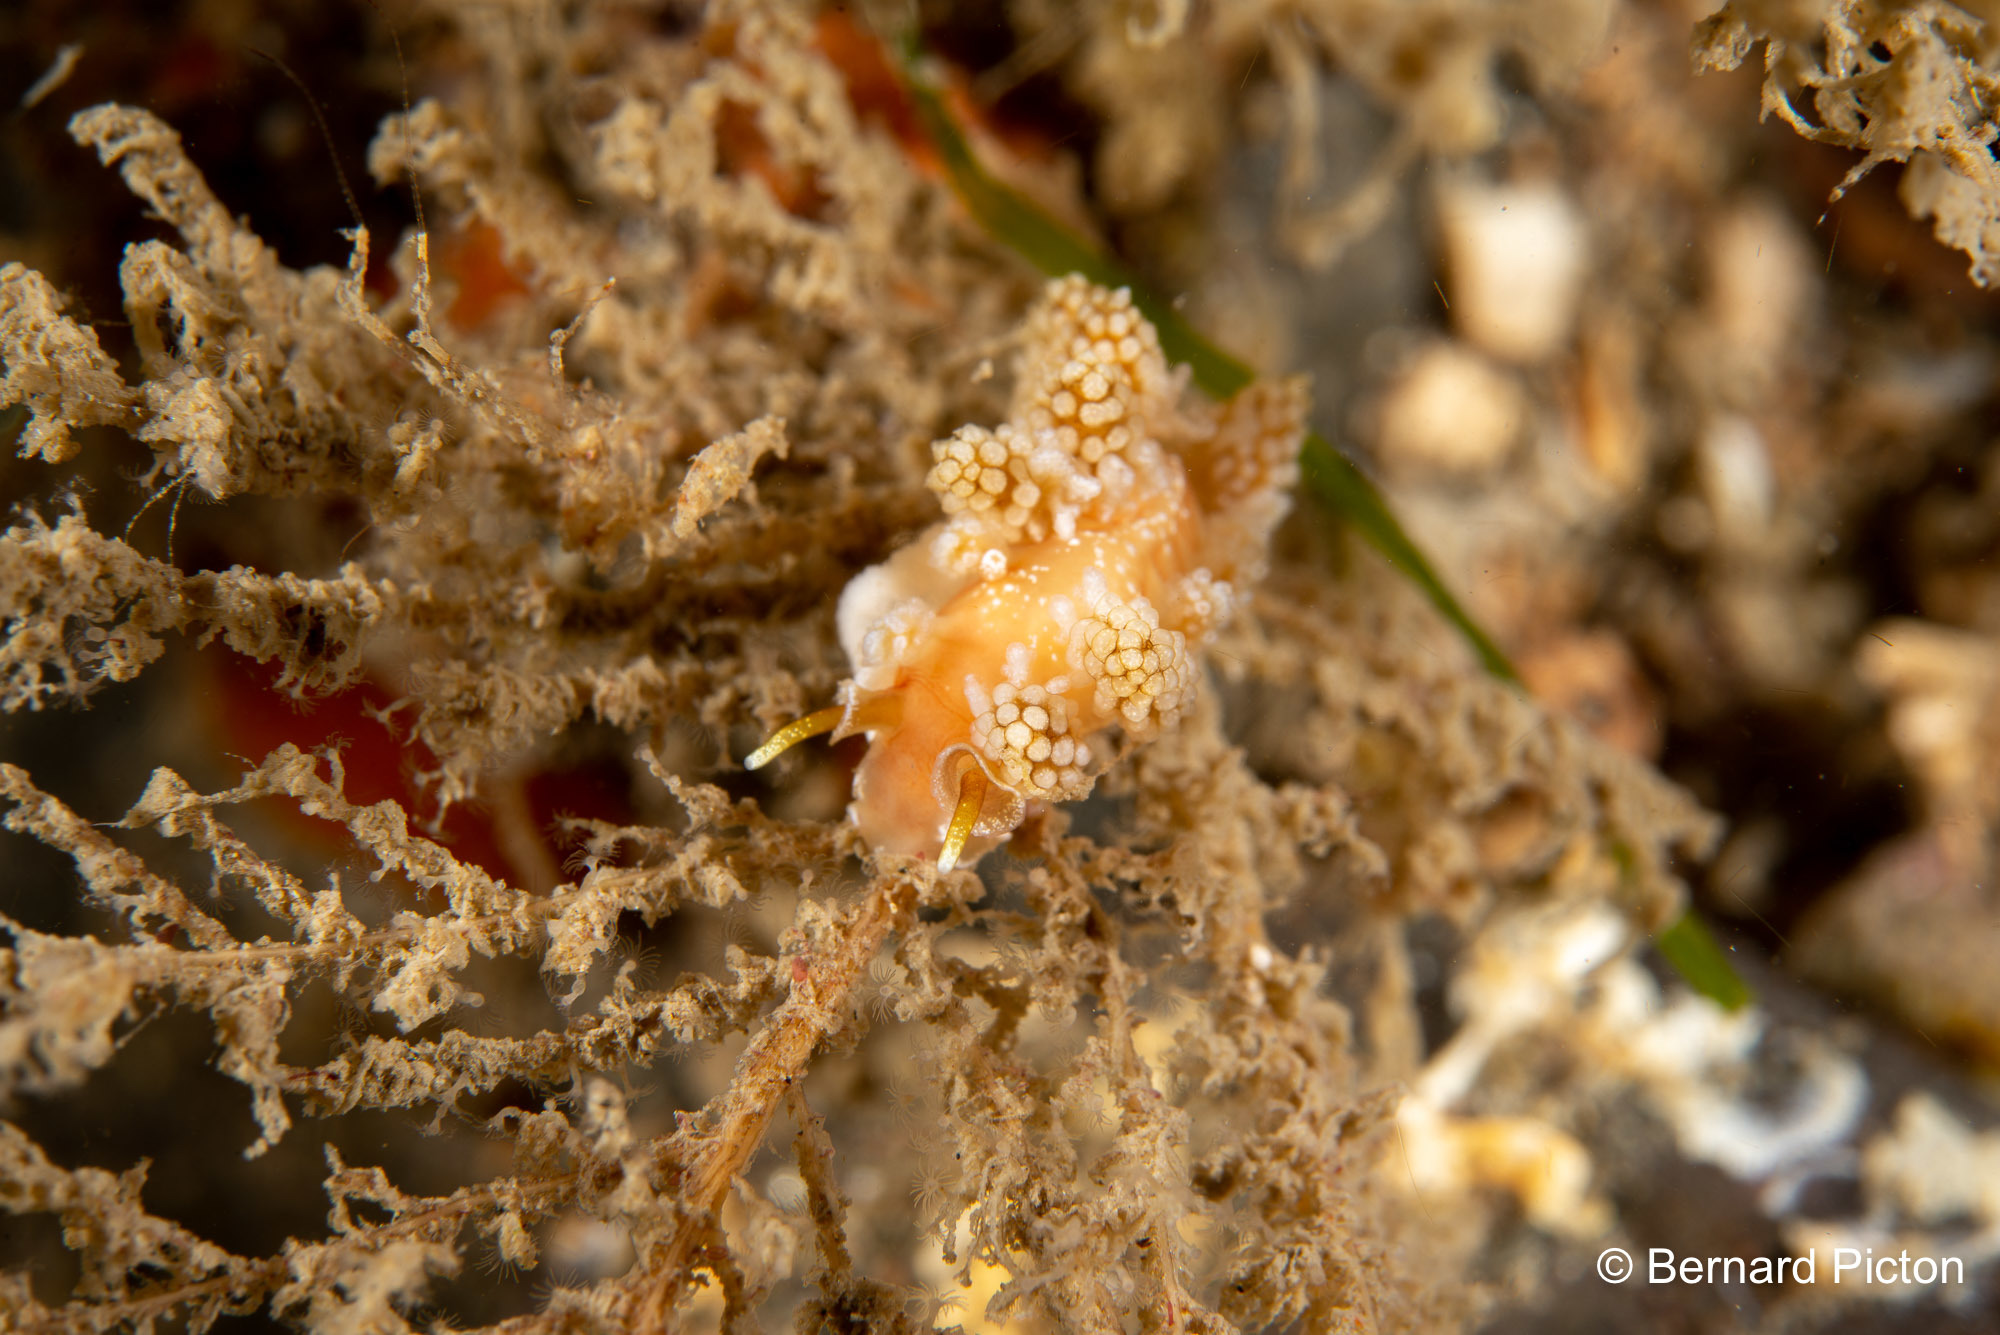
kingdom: Animalia
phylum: Mollusca
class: Gastropoda
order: Nudibranchia
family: Dotidae
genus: Doto
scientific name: Doto fragilis
